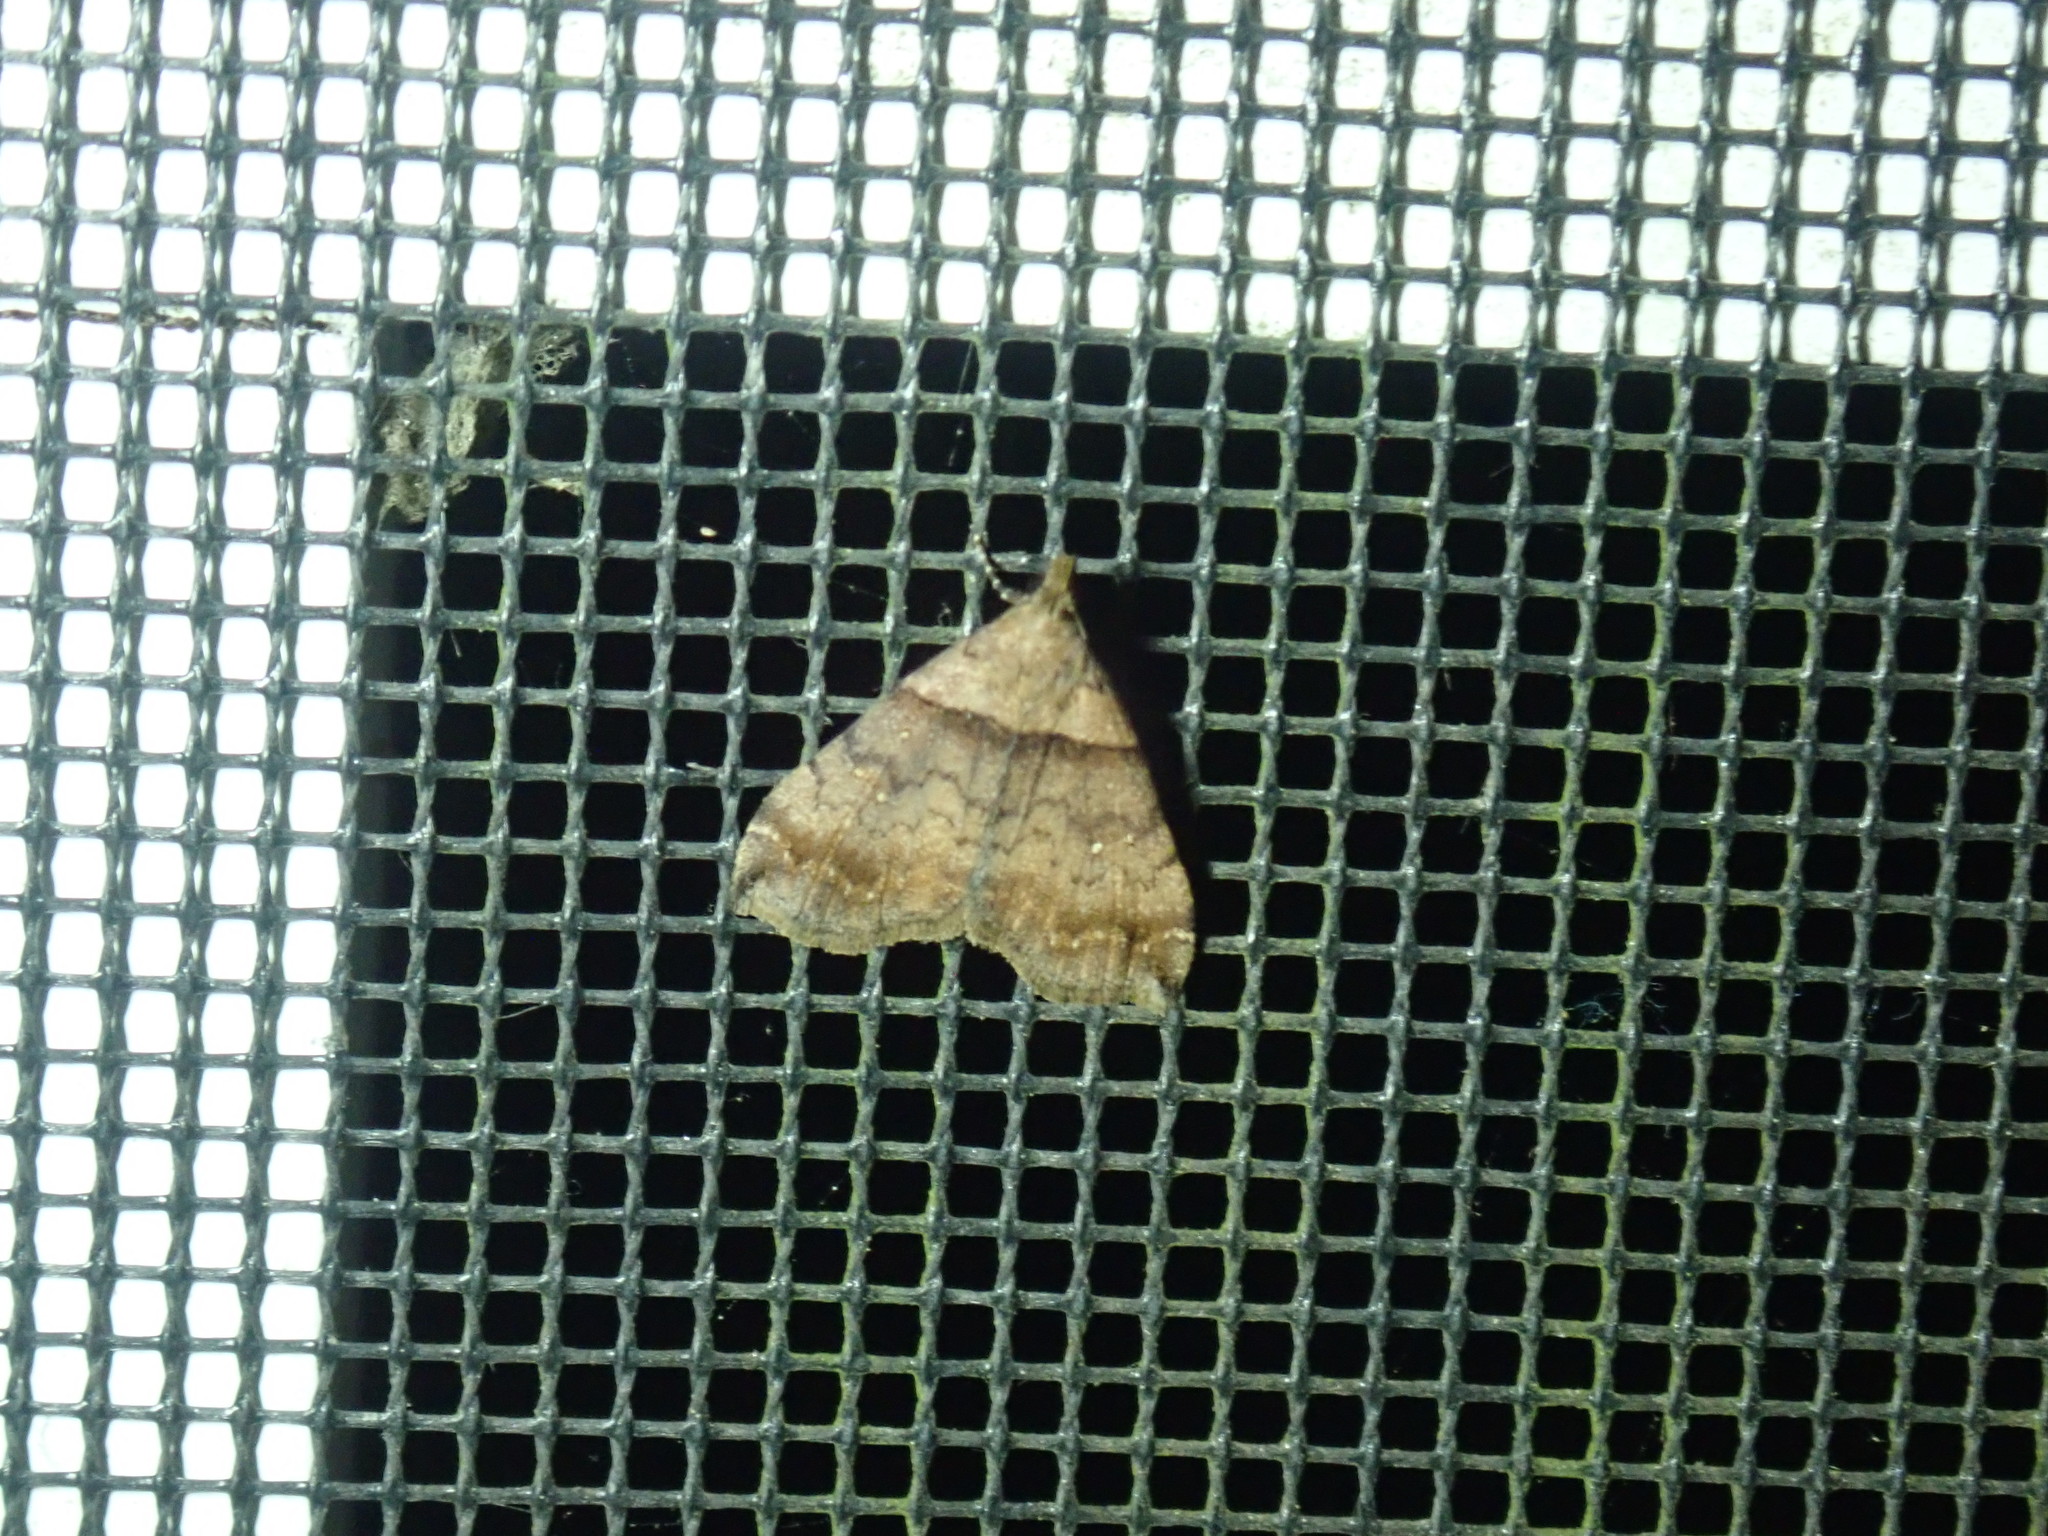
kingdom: Animalia
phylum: Arthropoda
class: Insecta
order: Lepidoptera
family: Erebidae
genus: Lascoria
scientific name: Lascoria ambigualis
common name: Ambiguous moth
